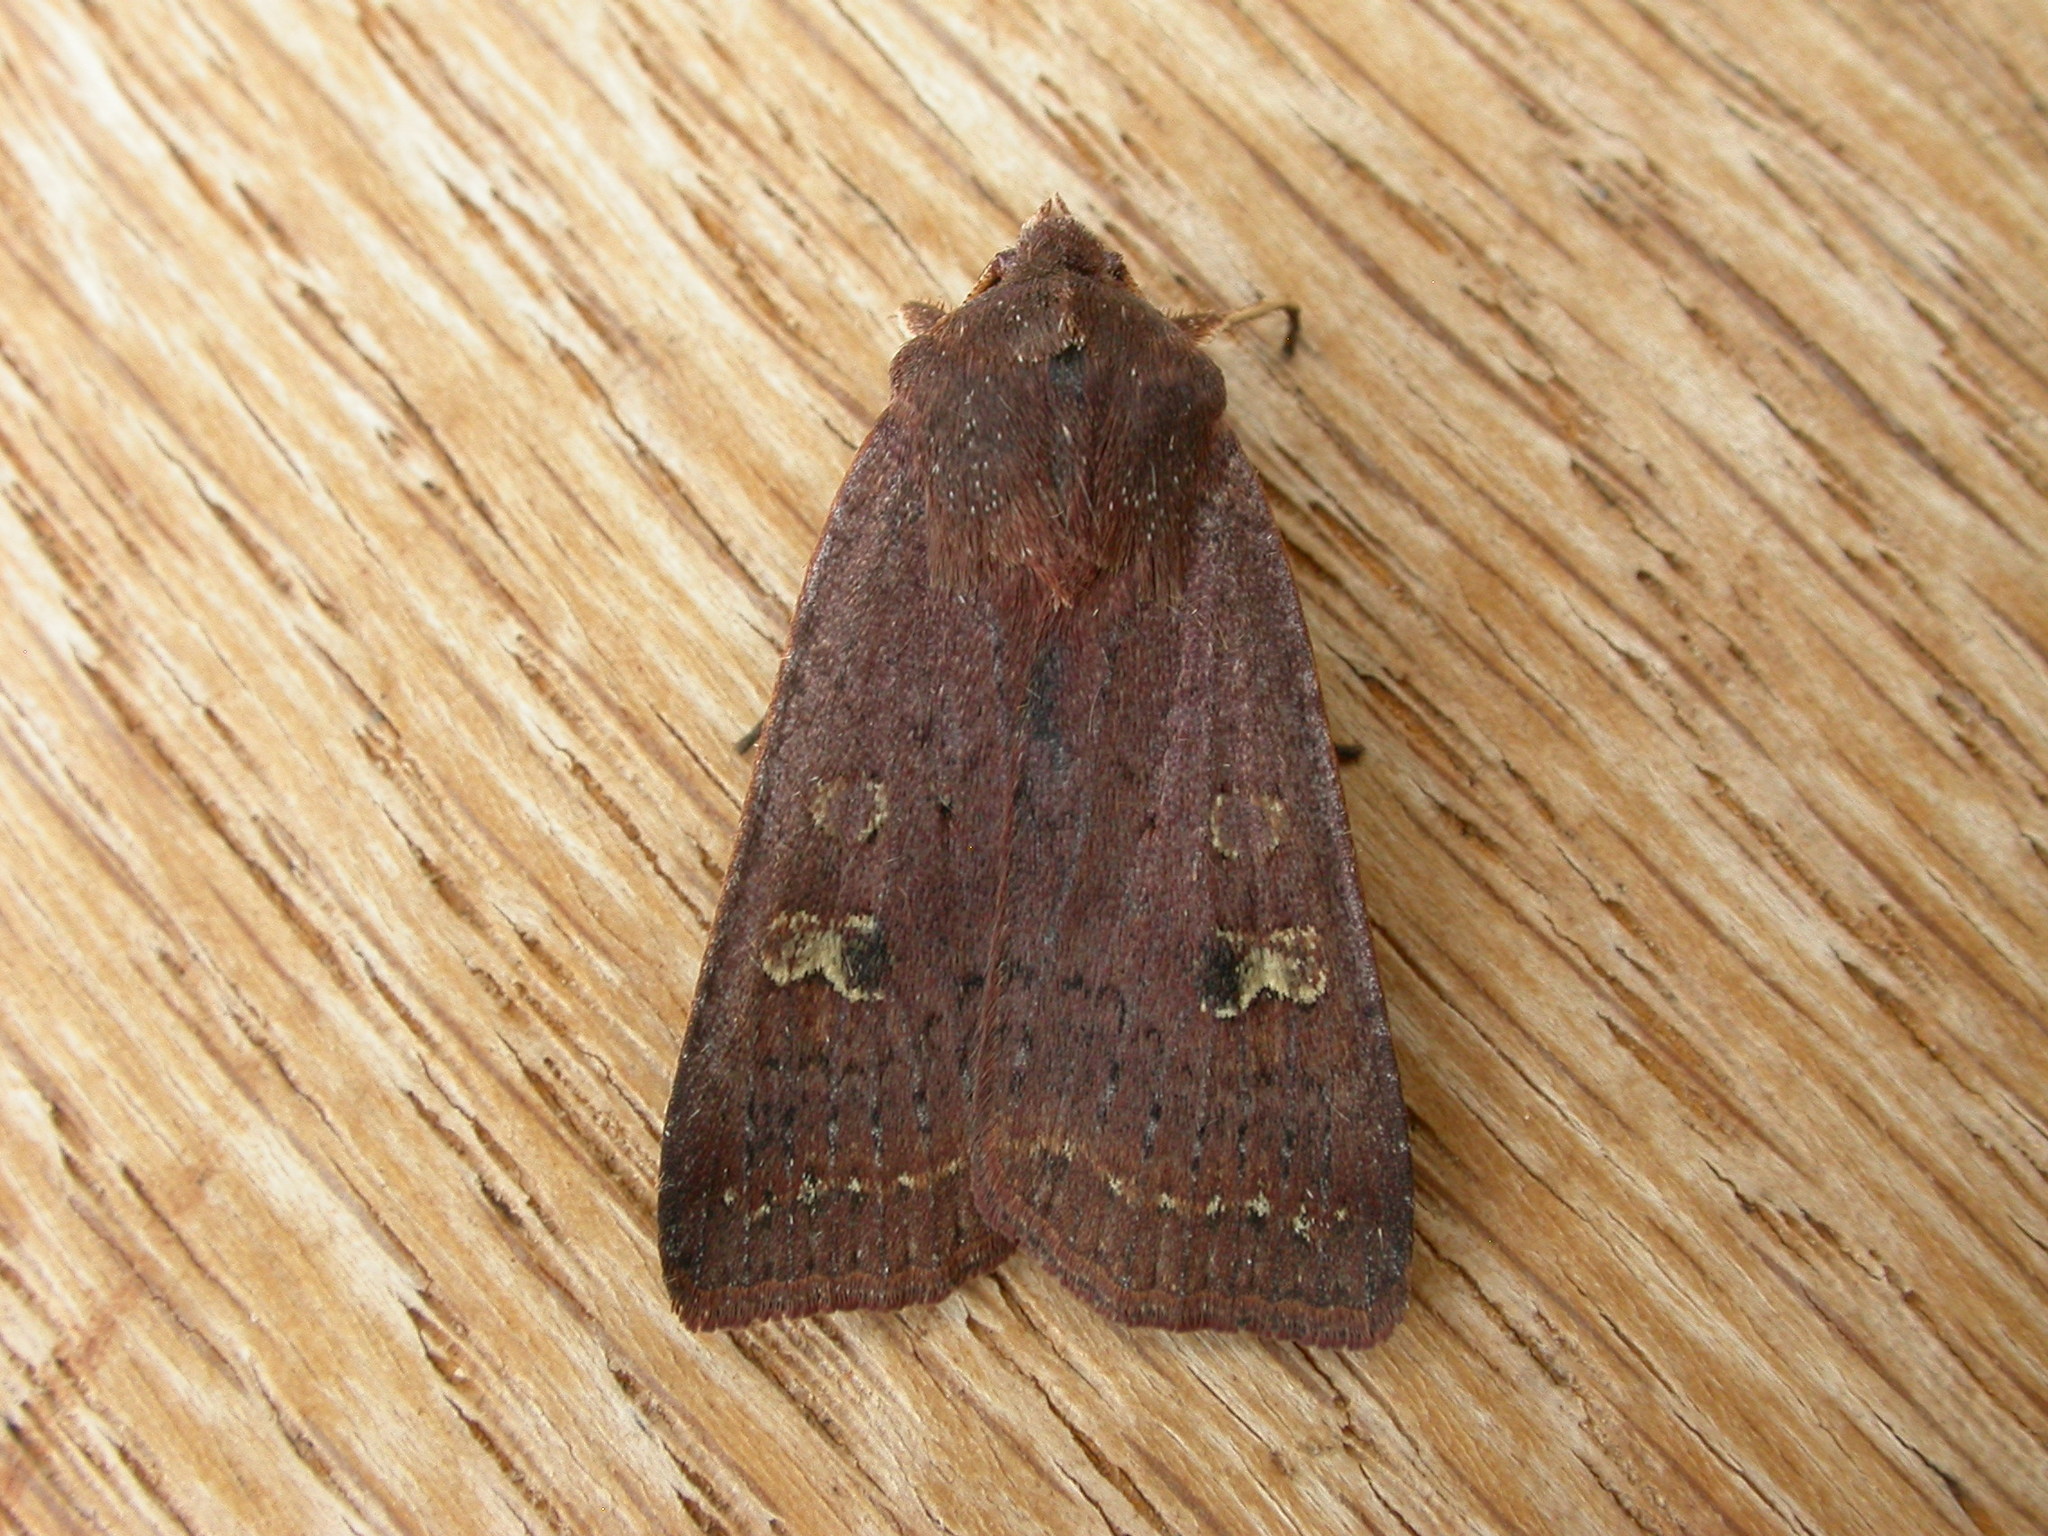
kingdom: Animalia
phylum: Arthropoda
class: Insecta
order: Lepidoptera
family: Noctuidae
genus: Diarsia
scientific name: Diarsia intermixta
